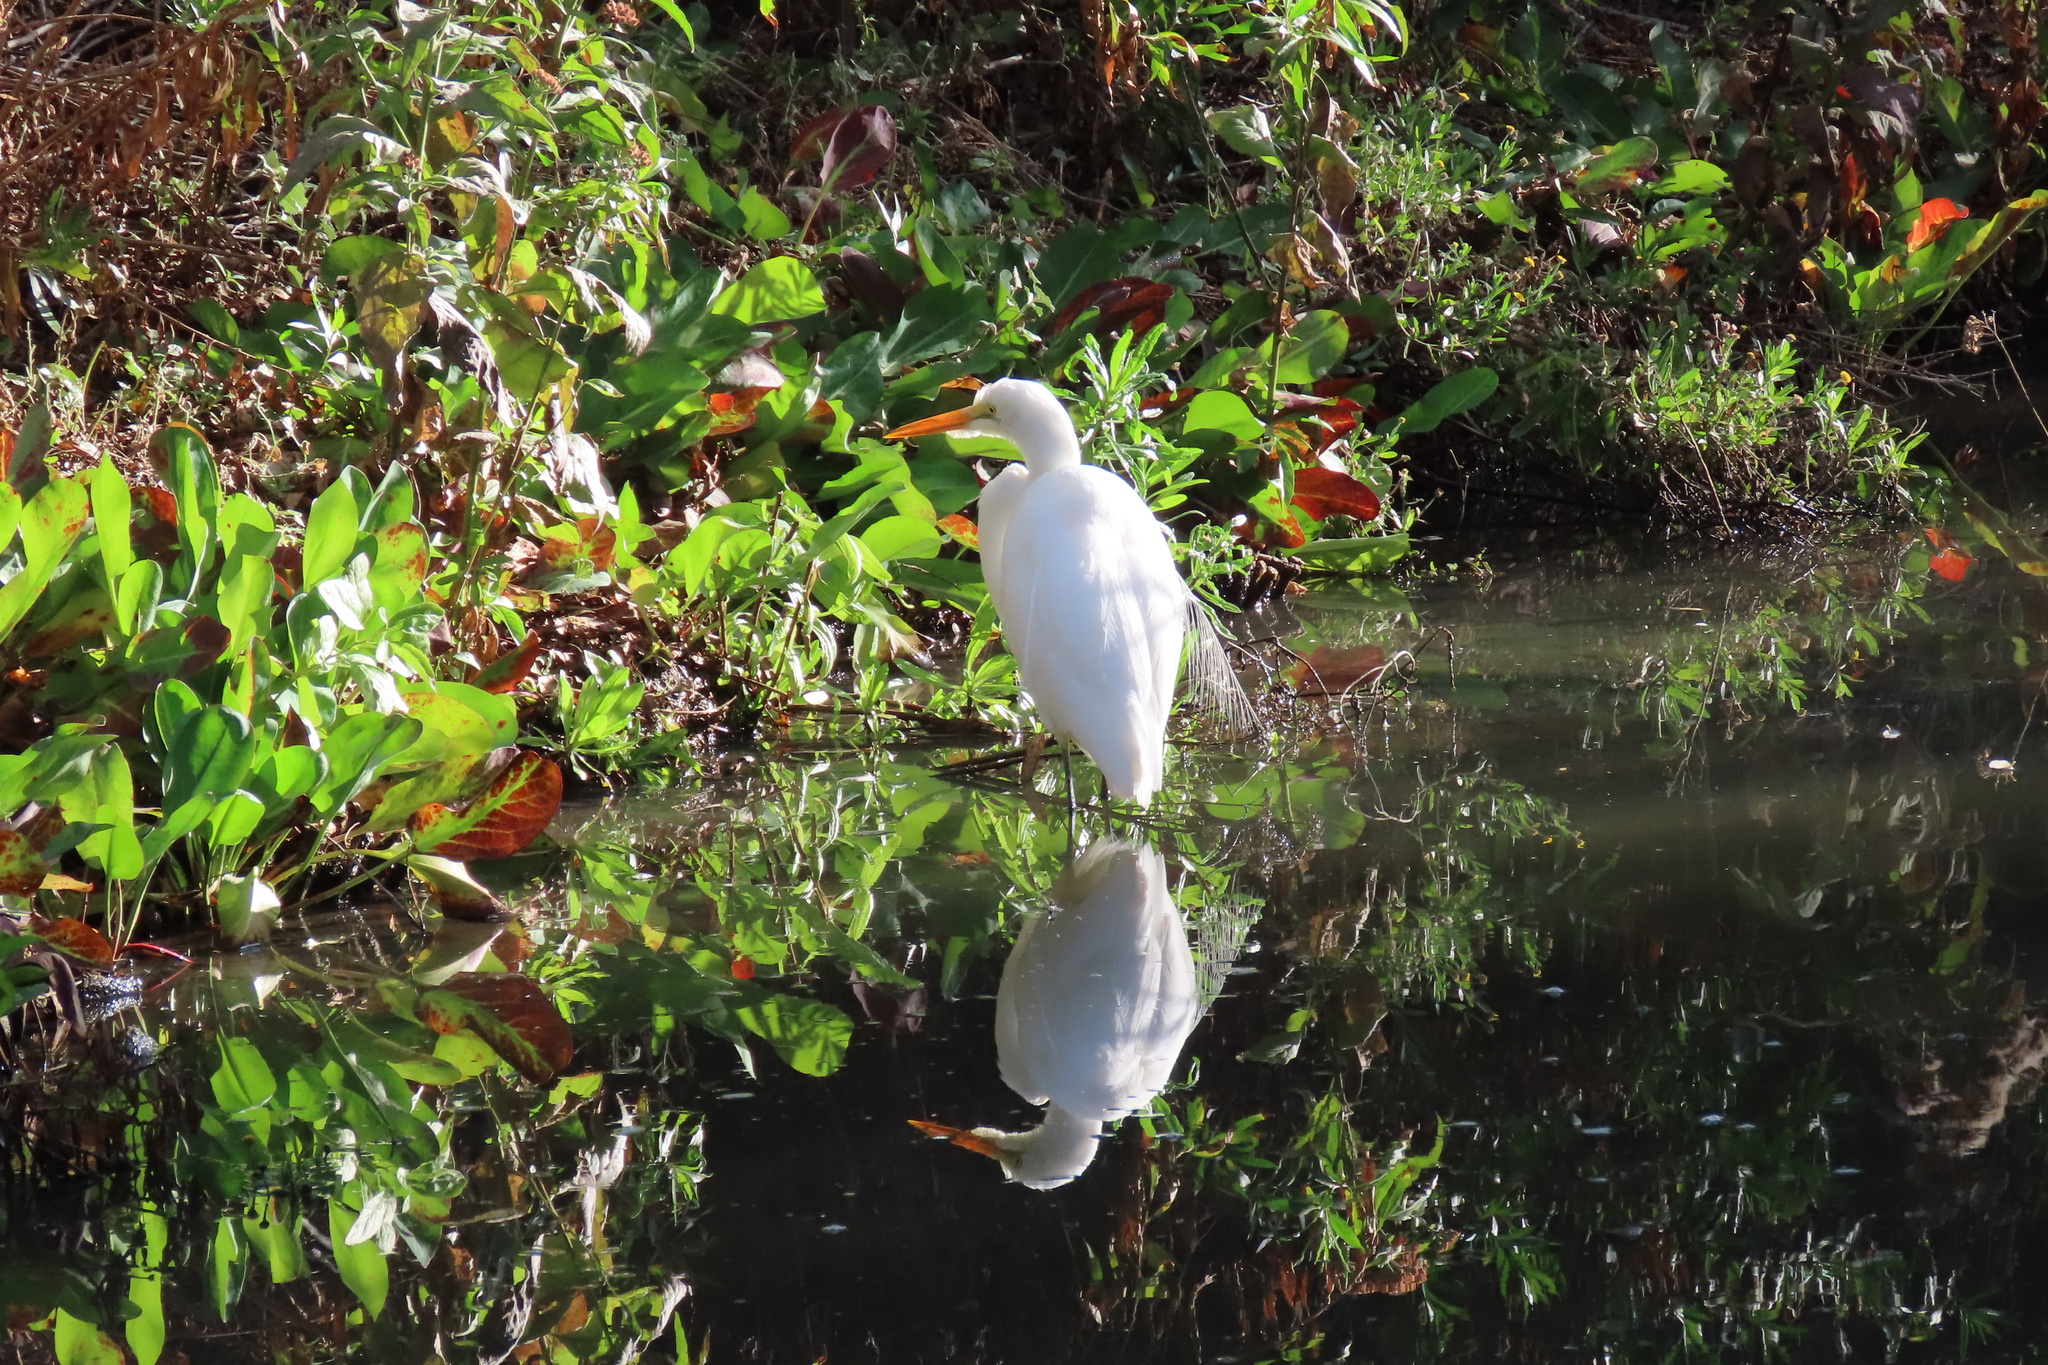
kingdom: Animalia
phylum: Chordata
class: Aves
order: Pelecaniformes
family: Ardeidae
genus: Ardea
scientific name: Ardea alba
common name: Great egret
